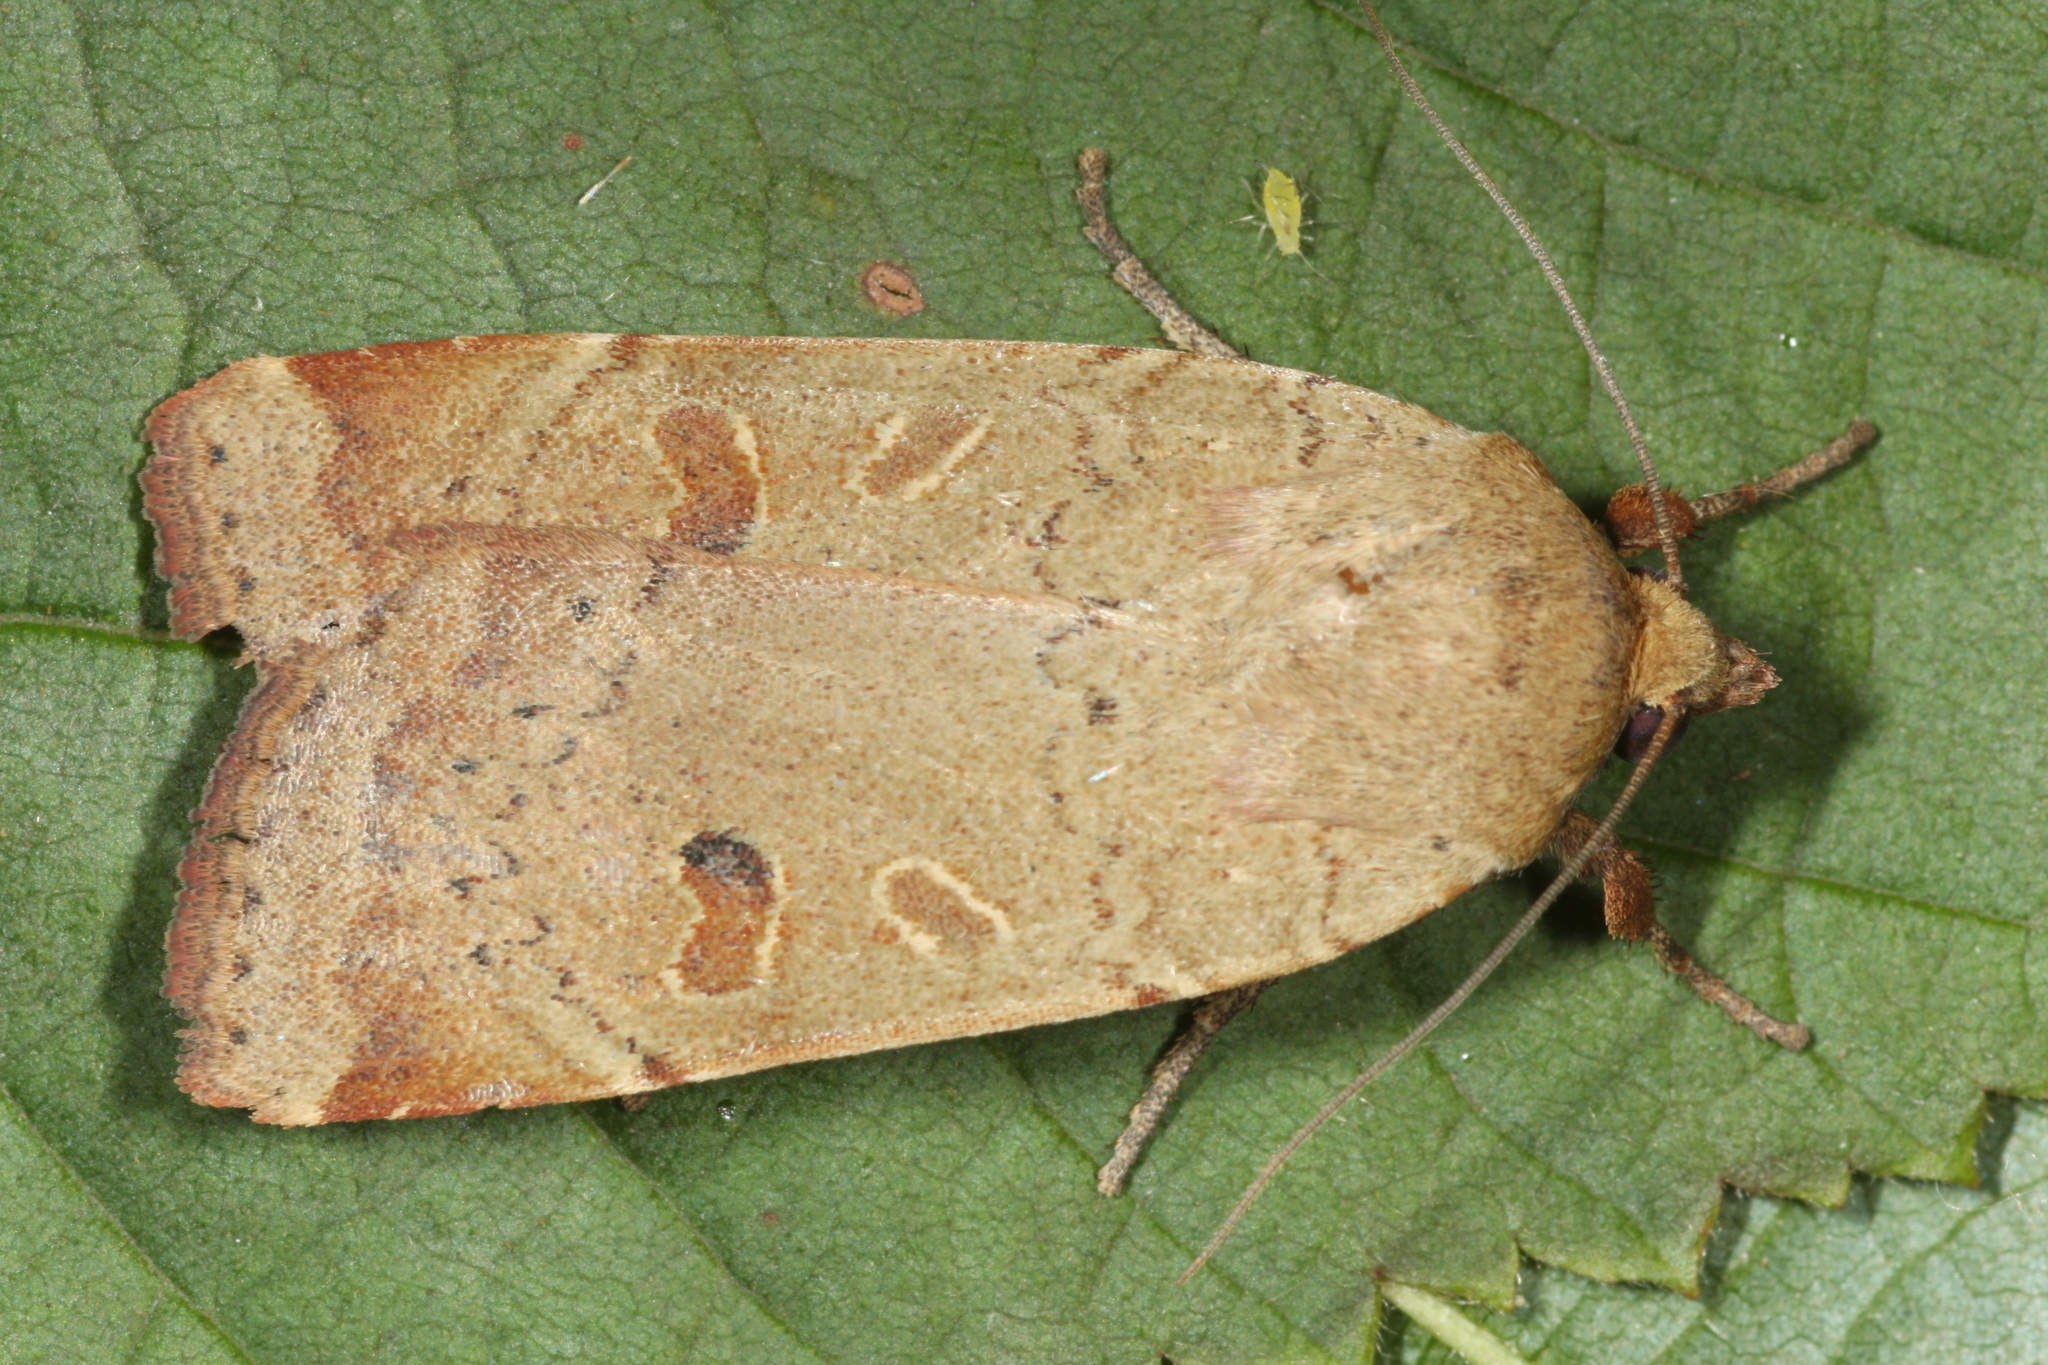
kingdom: Animalia
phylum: Arthropoda
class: Insecta
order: Lepidoptera
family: Noctuidae
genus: Noctua
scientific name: Noctua comes
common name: Lesser yellow underwing
